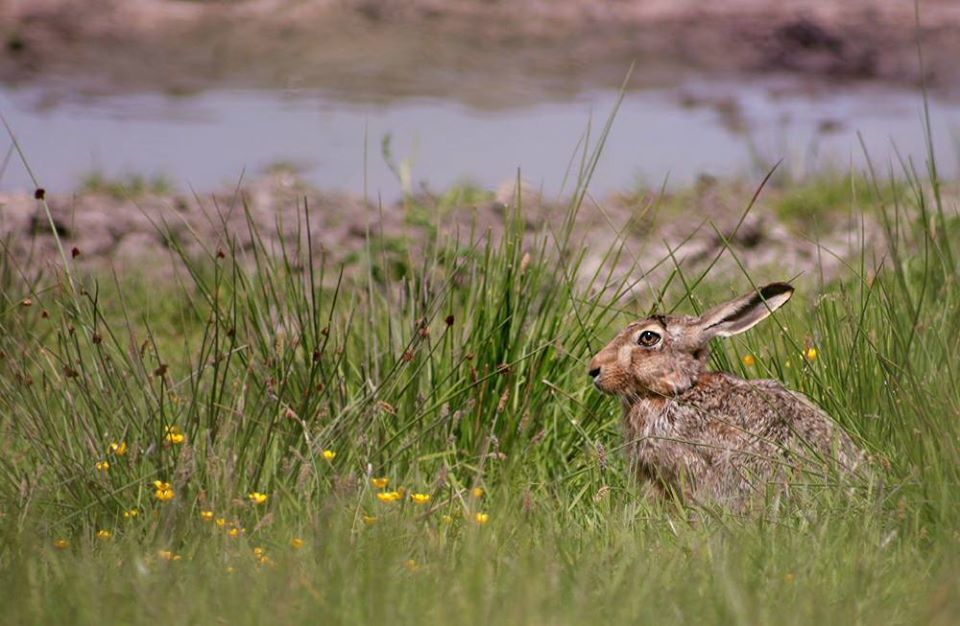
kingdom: Animalia
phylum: Chordata
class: Mammalia
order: Lagomorpha
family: Leporidae
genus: Lepus
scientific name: Lepus europaeus
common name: European hare
